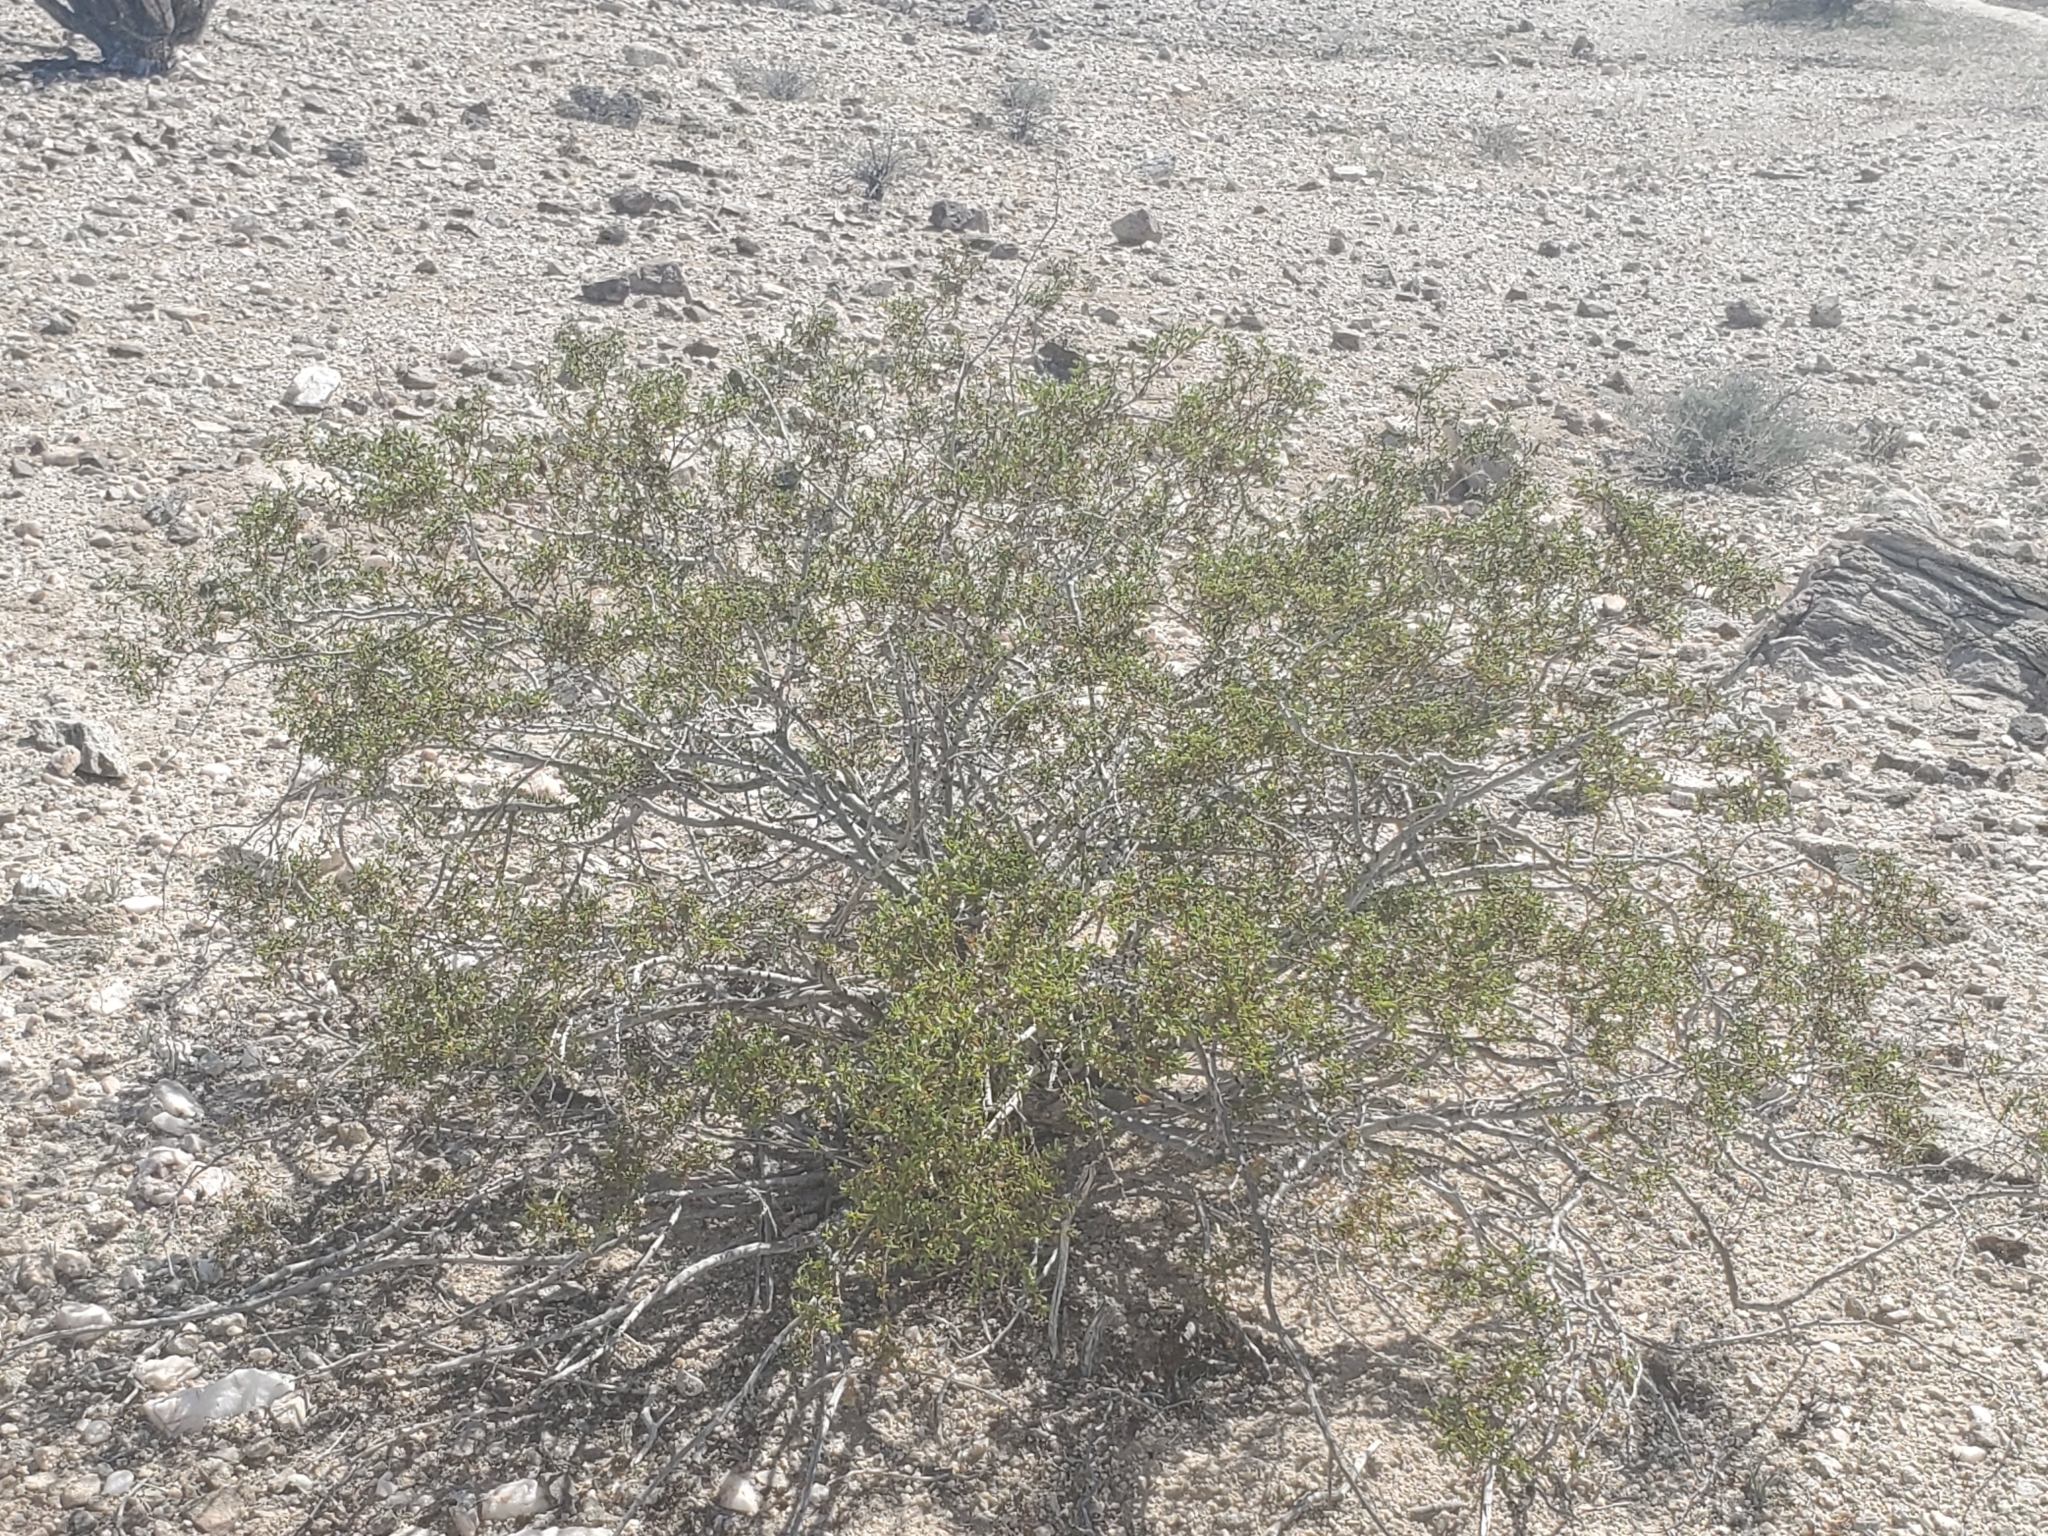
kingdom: Plantae
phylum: Tracheophyta
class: Magnoliopsida
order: Zygophyllales
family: Zygophyllaceae
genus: Larrea
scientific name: Larrea tridentata
